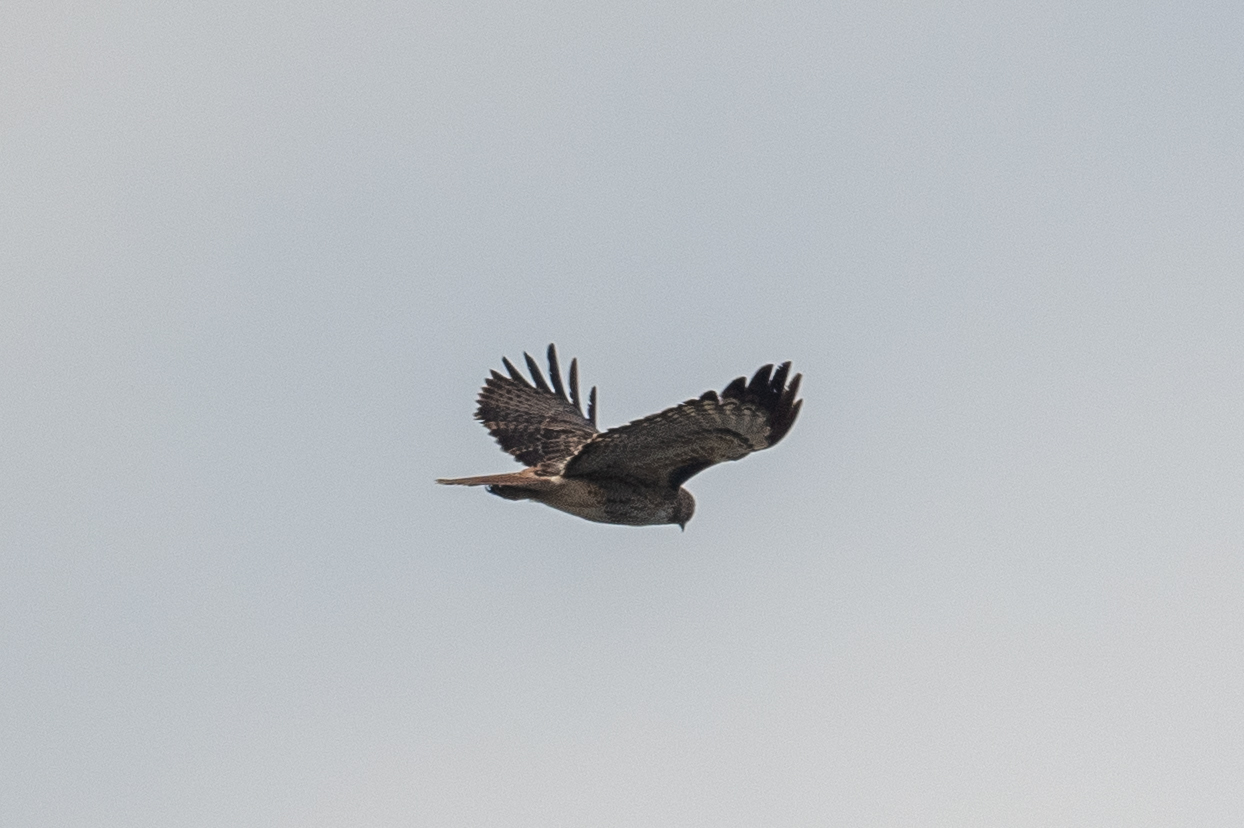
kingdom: Animalia
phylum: Chordata
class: Aves
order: Accipitriformes
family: Accipitridae
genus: Buteo
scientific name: Buteo jamaicensis
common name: Red-tailed hawk
